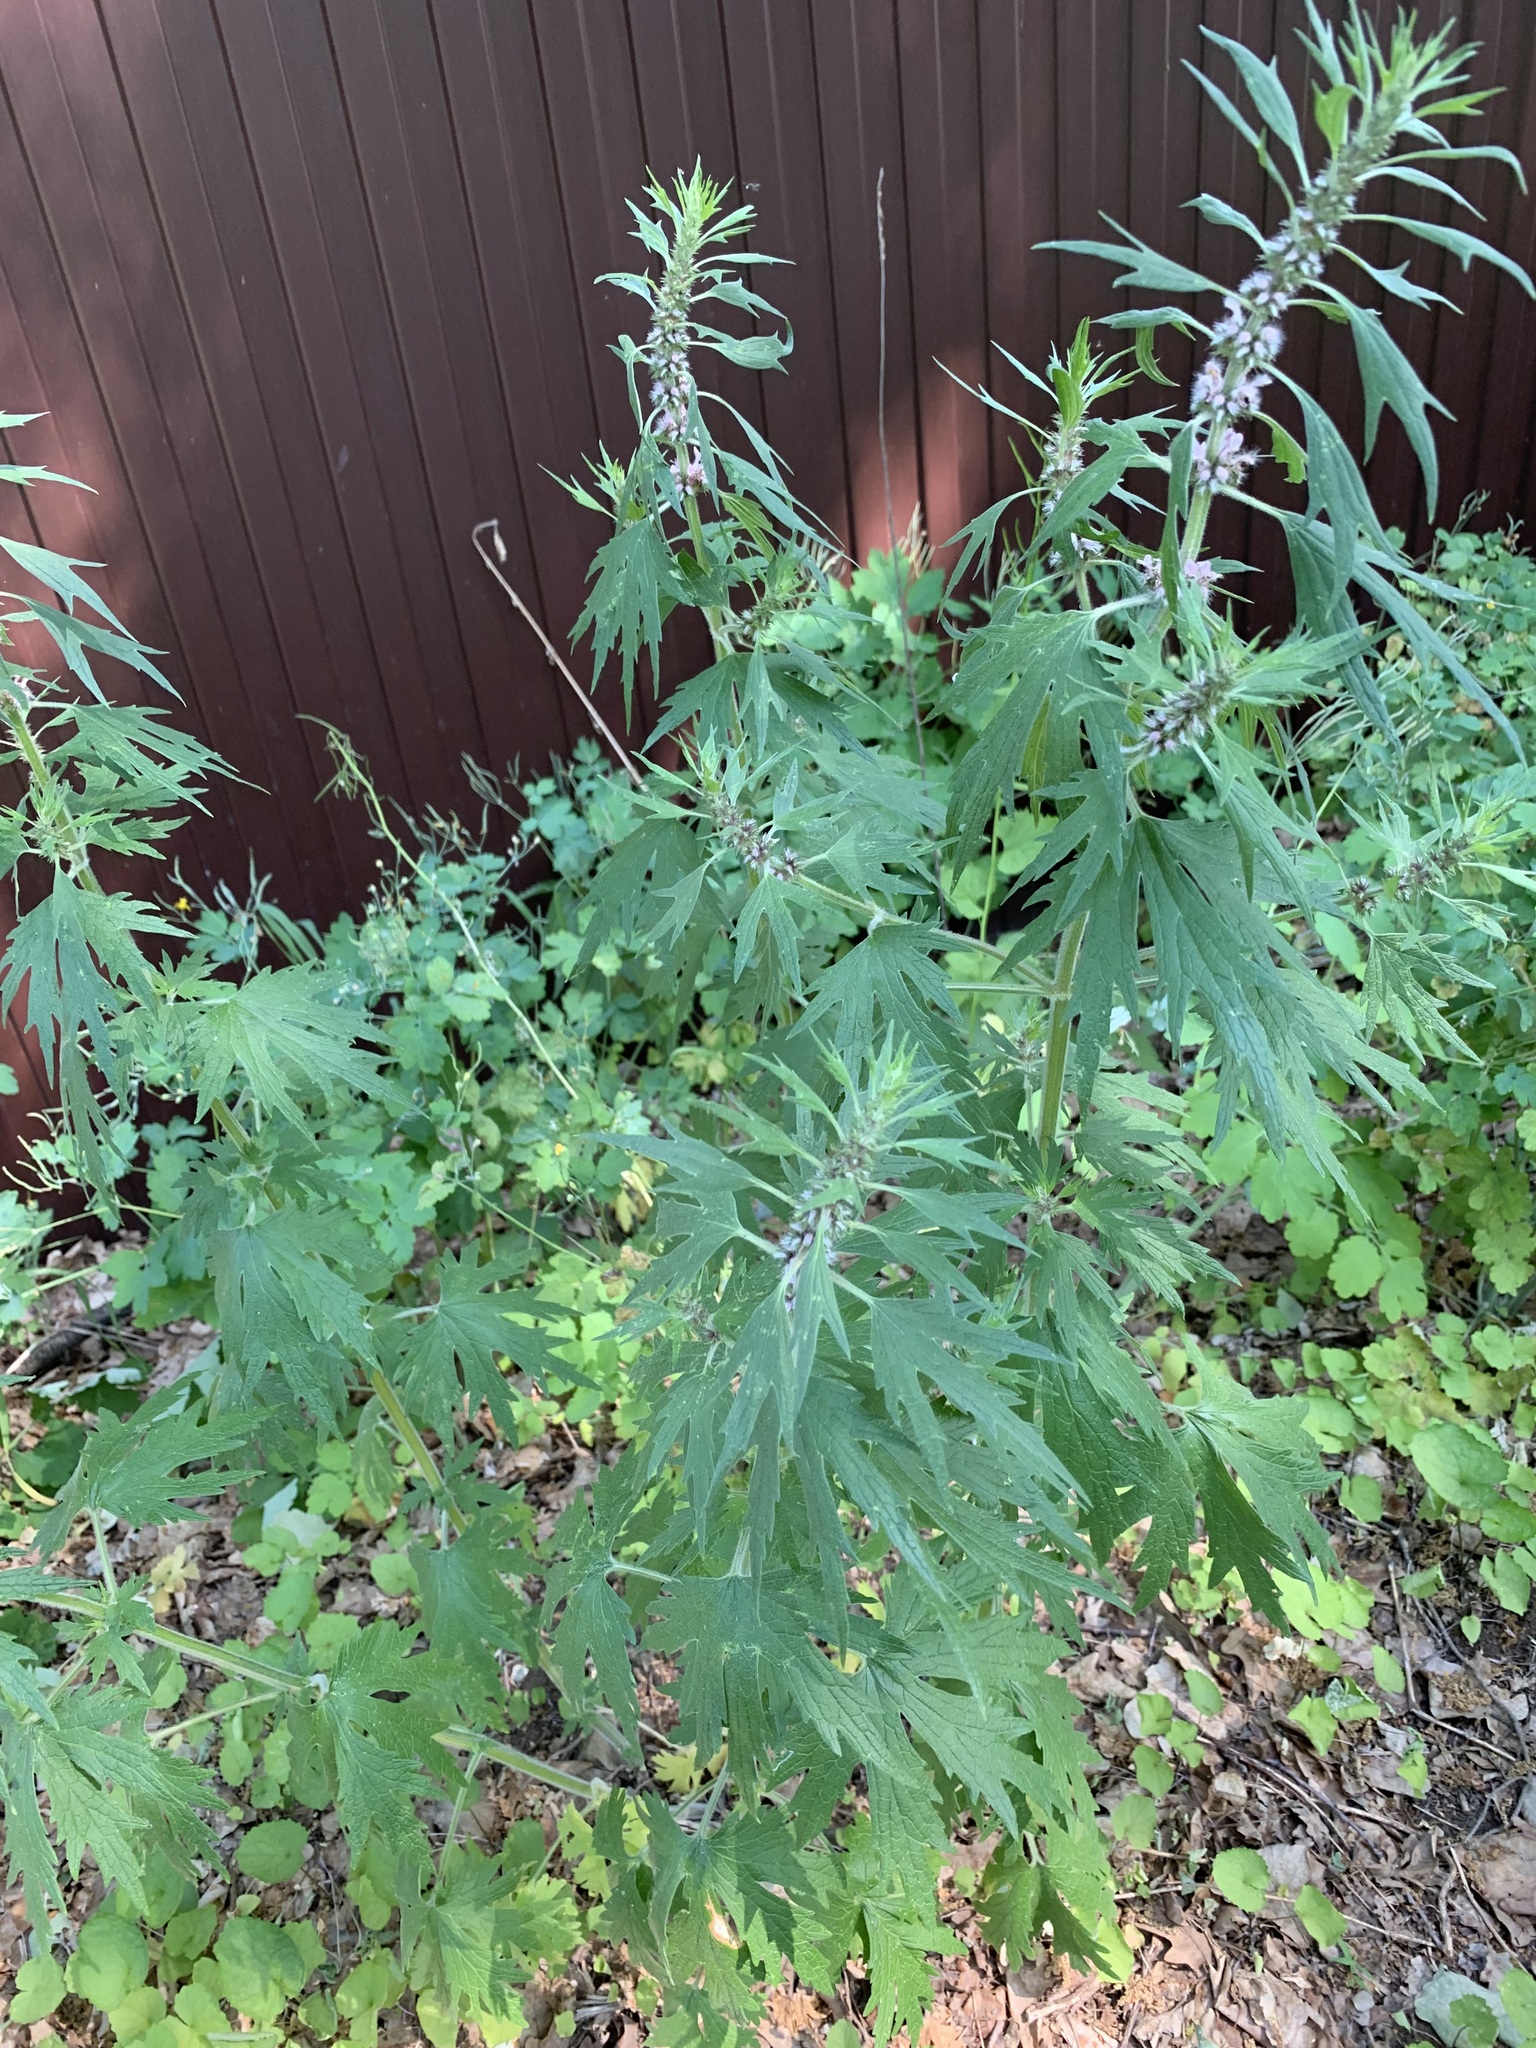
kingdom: Plantae
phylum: Tracheophyta
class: Magnoliopsida
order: Lamiales
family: Lamiaceae
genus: Leonurus
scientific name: Leonurus quinquelobatus
